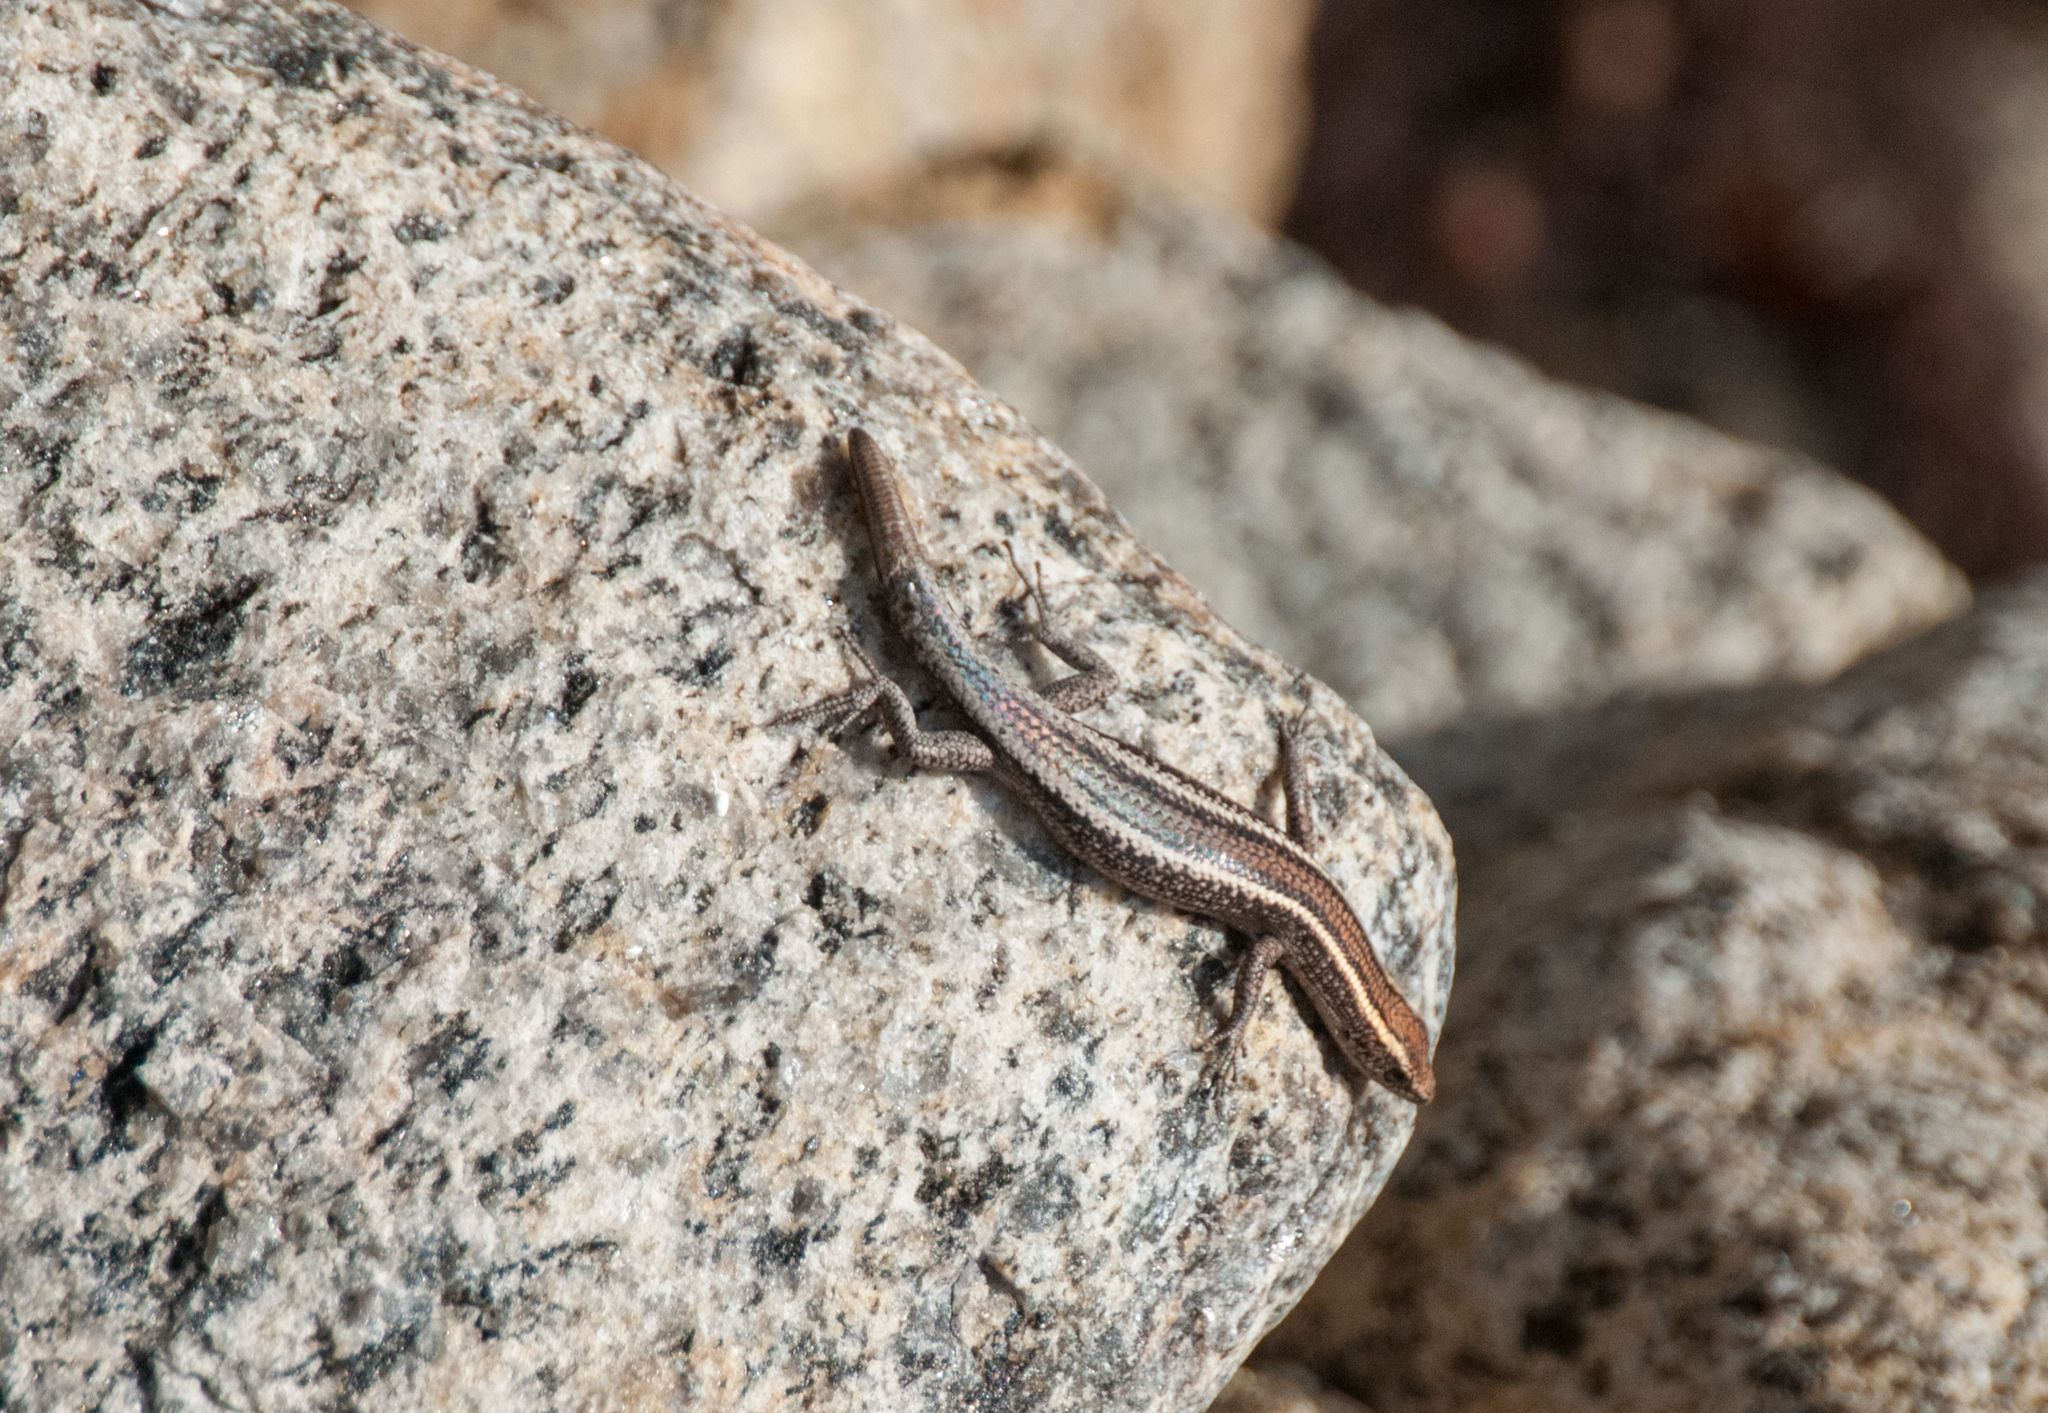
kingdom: Animalia
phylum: Chordata
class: Squamata
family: Scincidae
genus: Cryptoblepharus
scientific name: Cryptoblepharus pulcher
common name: Elegant snake-eyed skink
